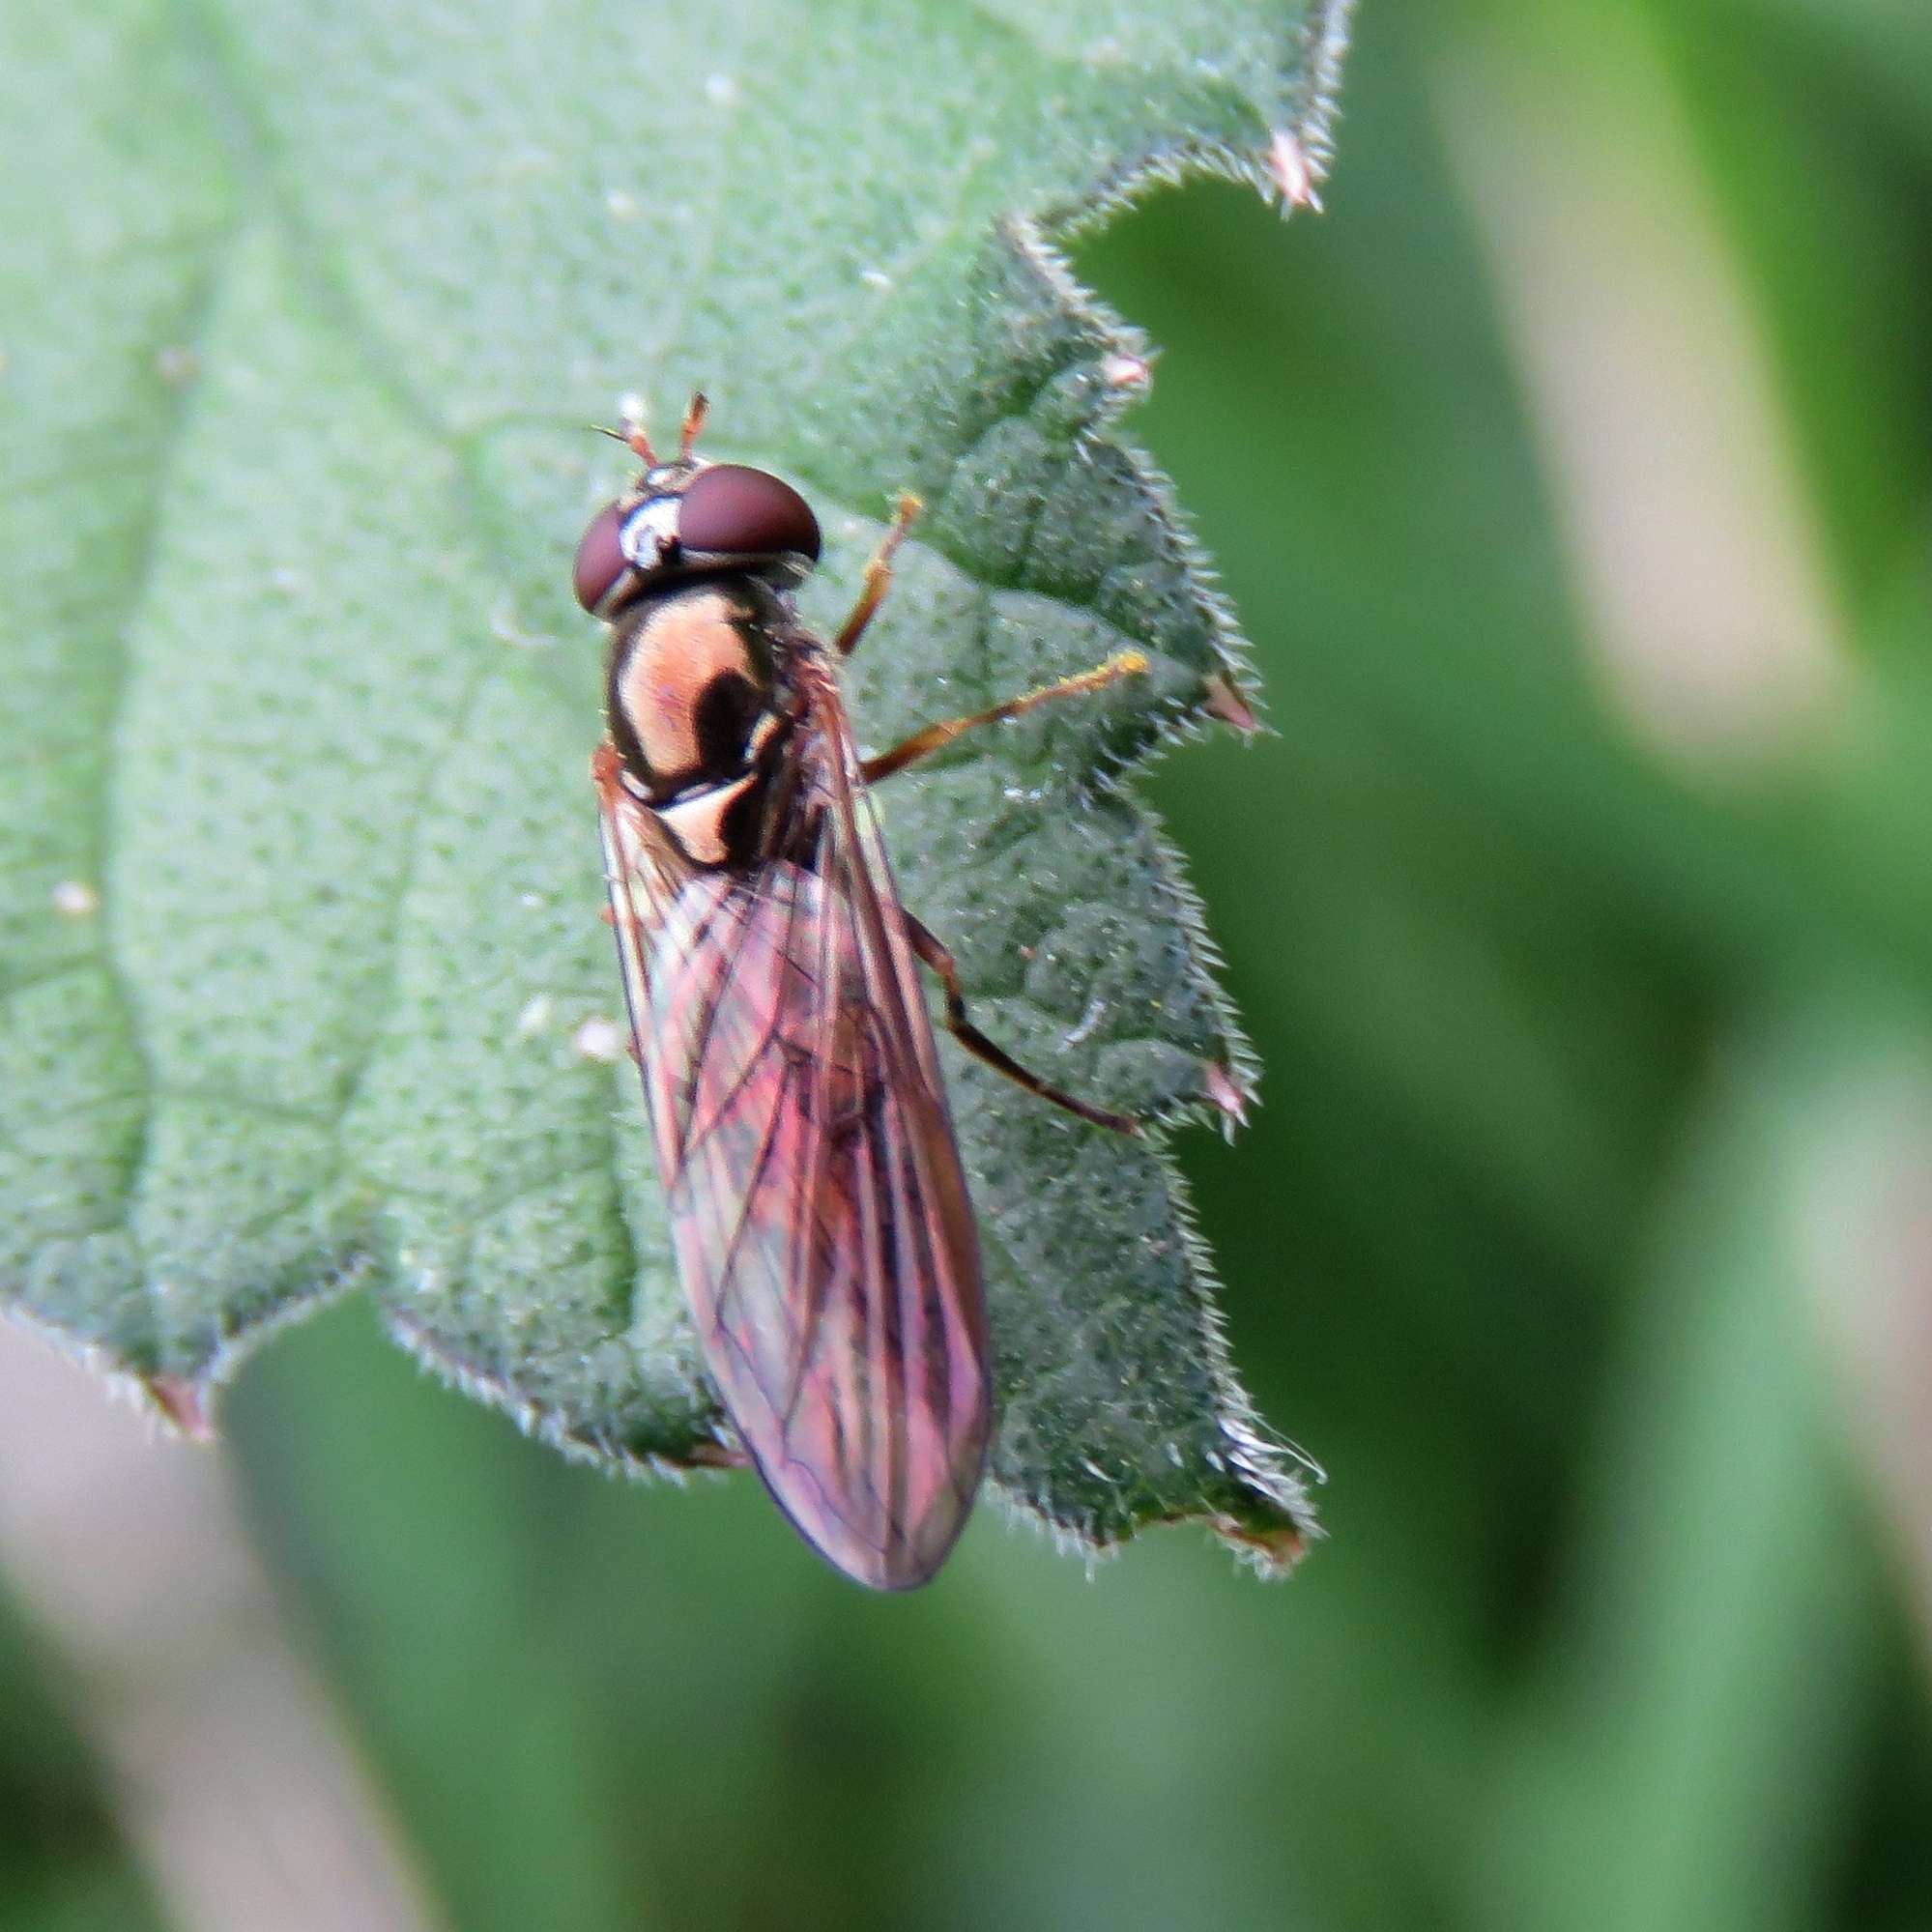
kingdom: Animalia
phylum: Arthropoda
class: Insecta
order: Diptera
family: Syrphidae
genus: Melanostoma
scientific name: Melanostoma scalare
